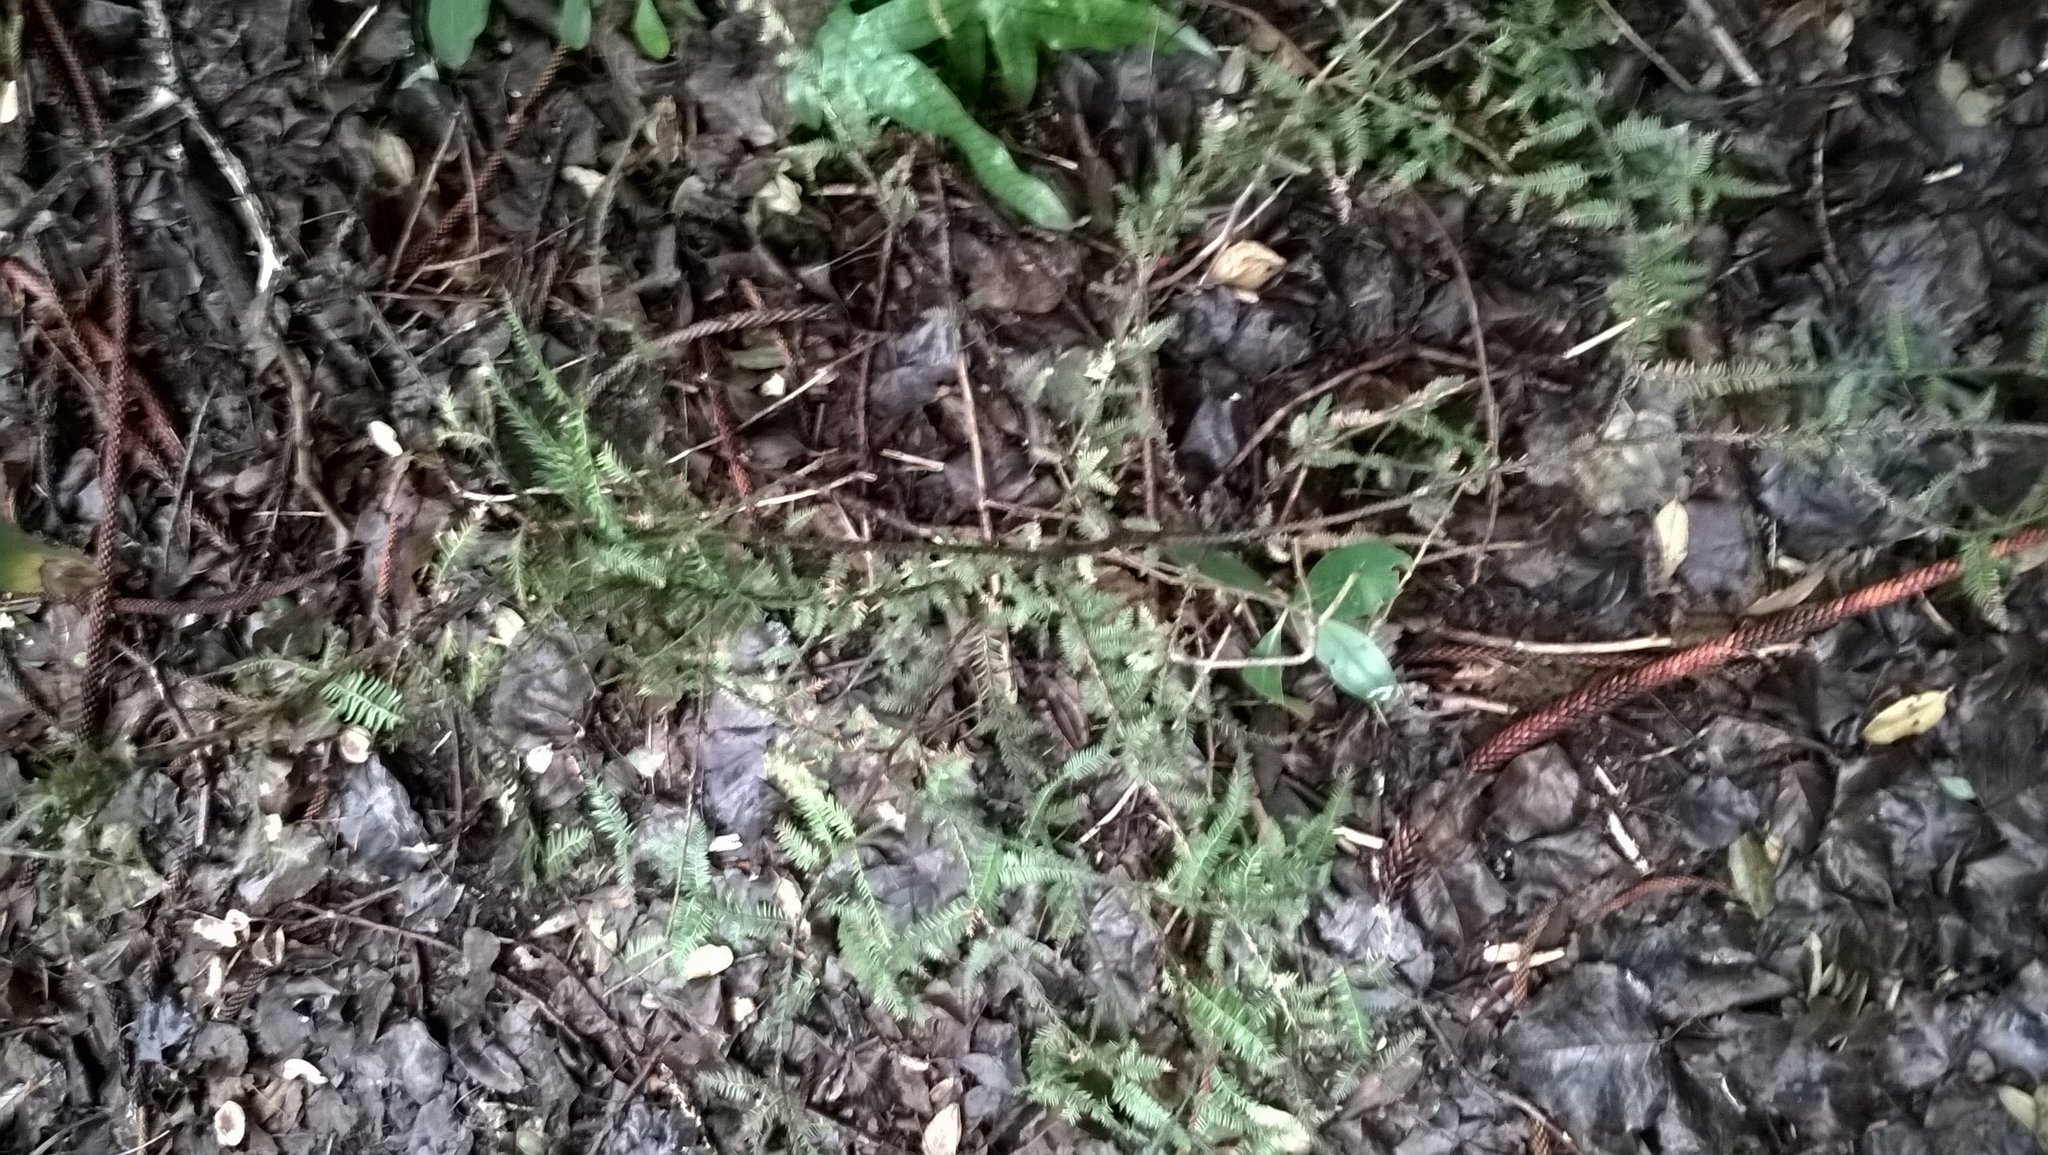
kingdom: Plantae
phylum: Tracheophyta
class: Pinopsida
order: Pinales
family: Podocarpaceae
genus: Dacrycarpus
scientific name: Dacrycarpus dacrydioides
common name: White pine
